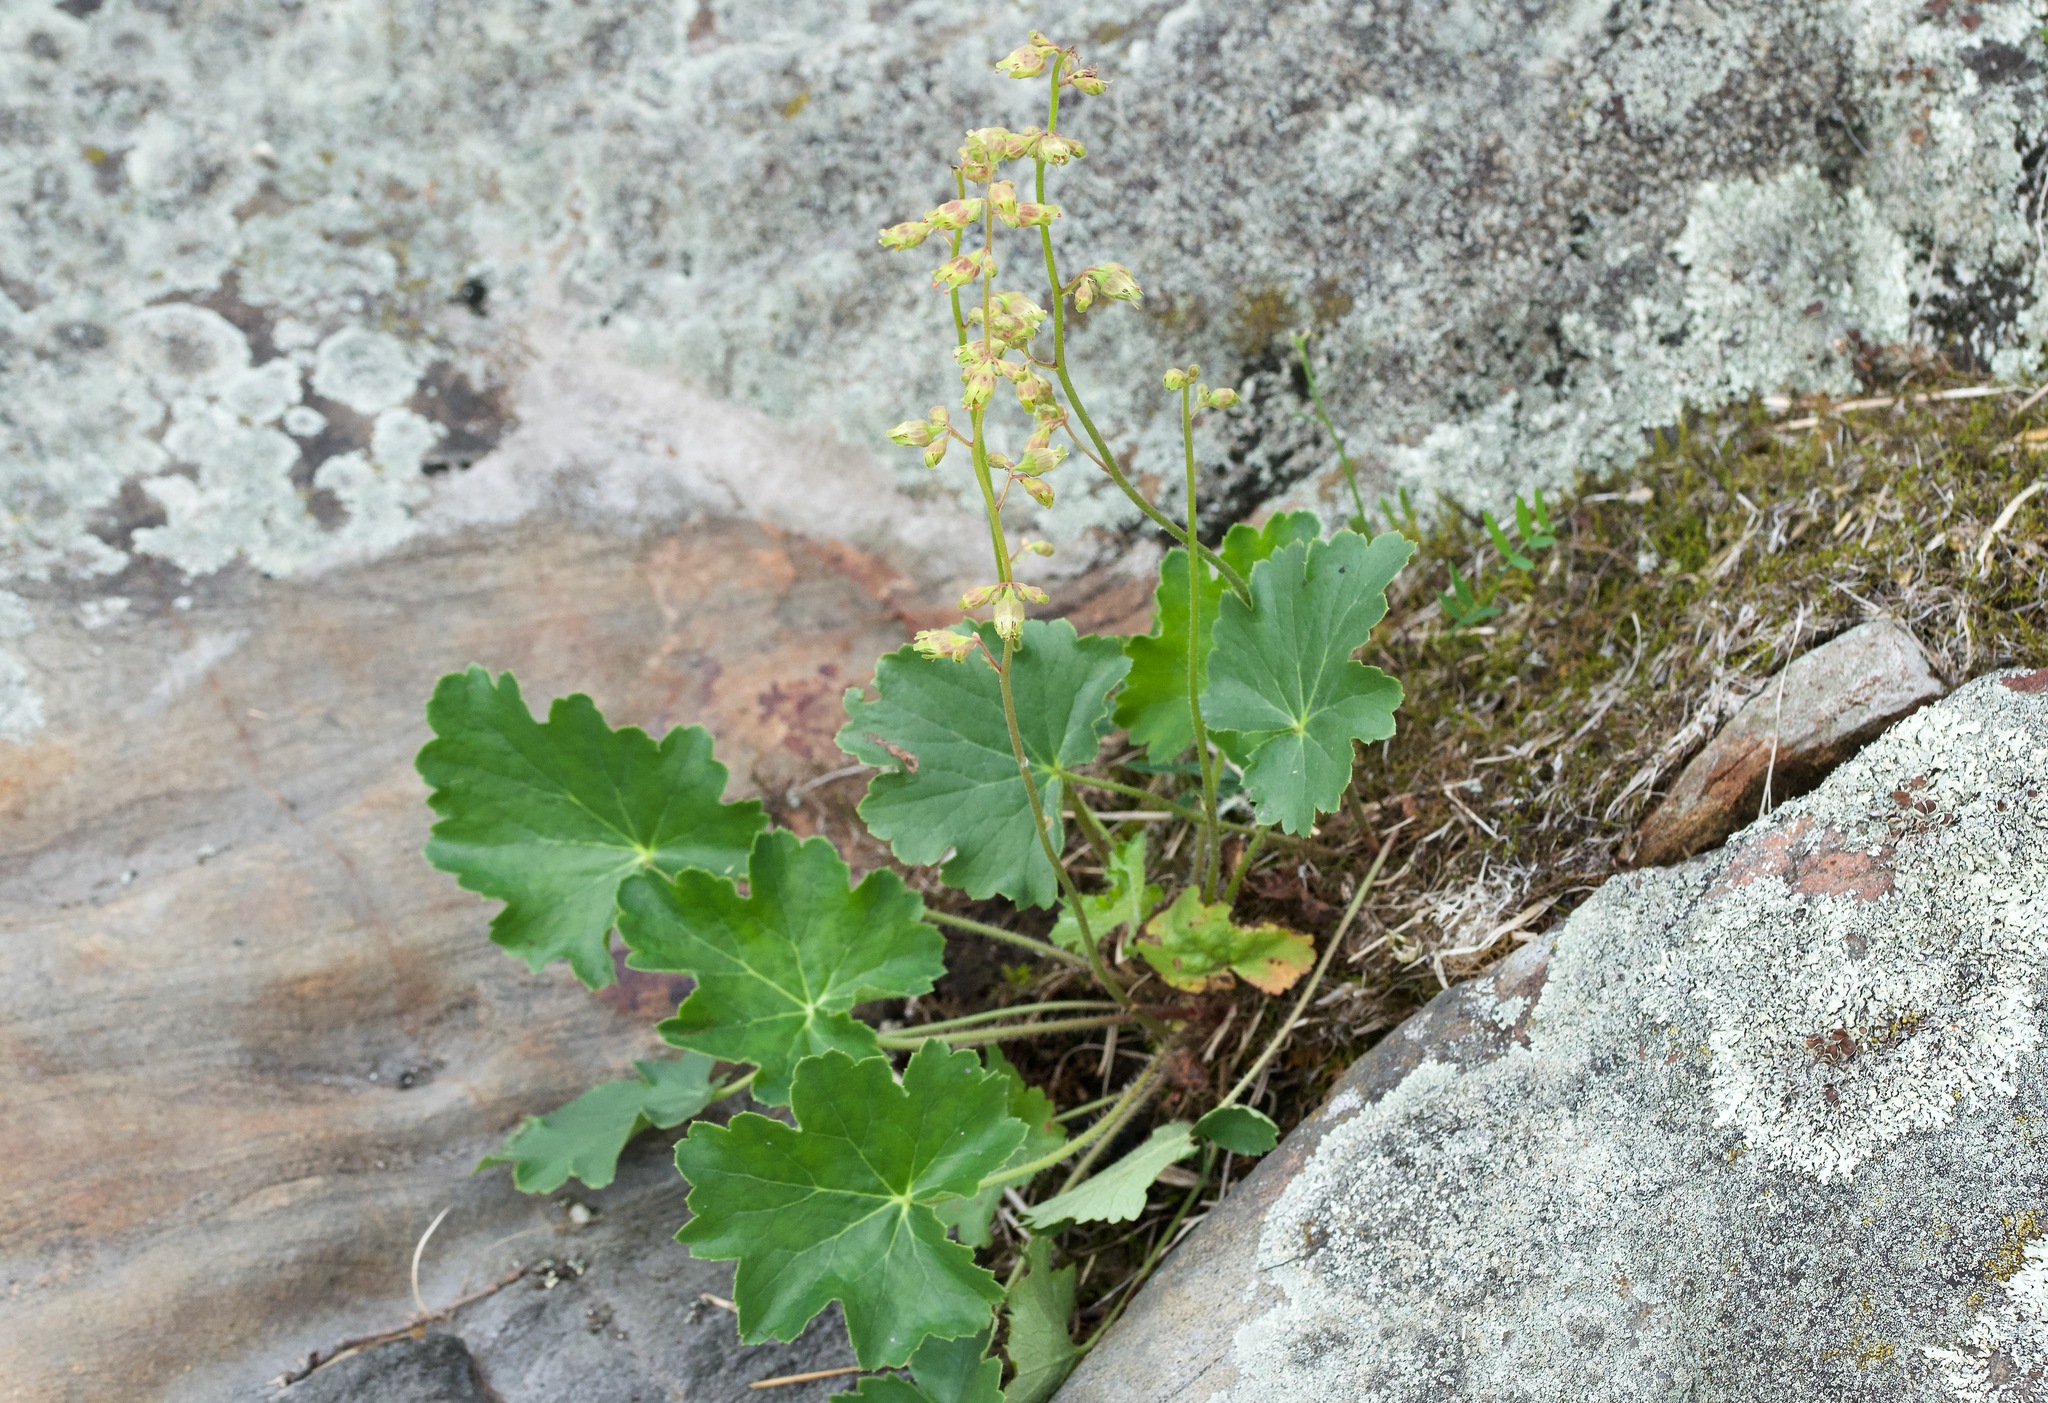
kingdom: Plantae
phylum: Tracheophyta
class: Magnoliopsida
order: Saxifragales
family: Saxifragaceae
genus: Heuchera
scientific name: Heuchera richardsonii
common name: Richardson's alumroot
